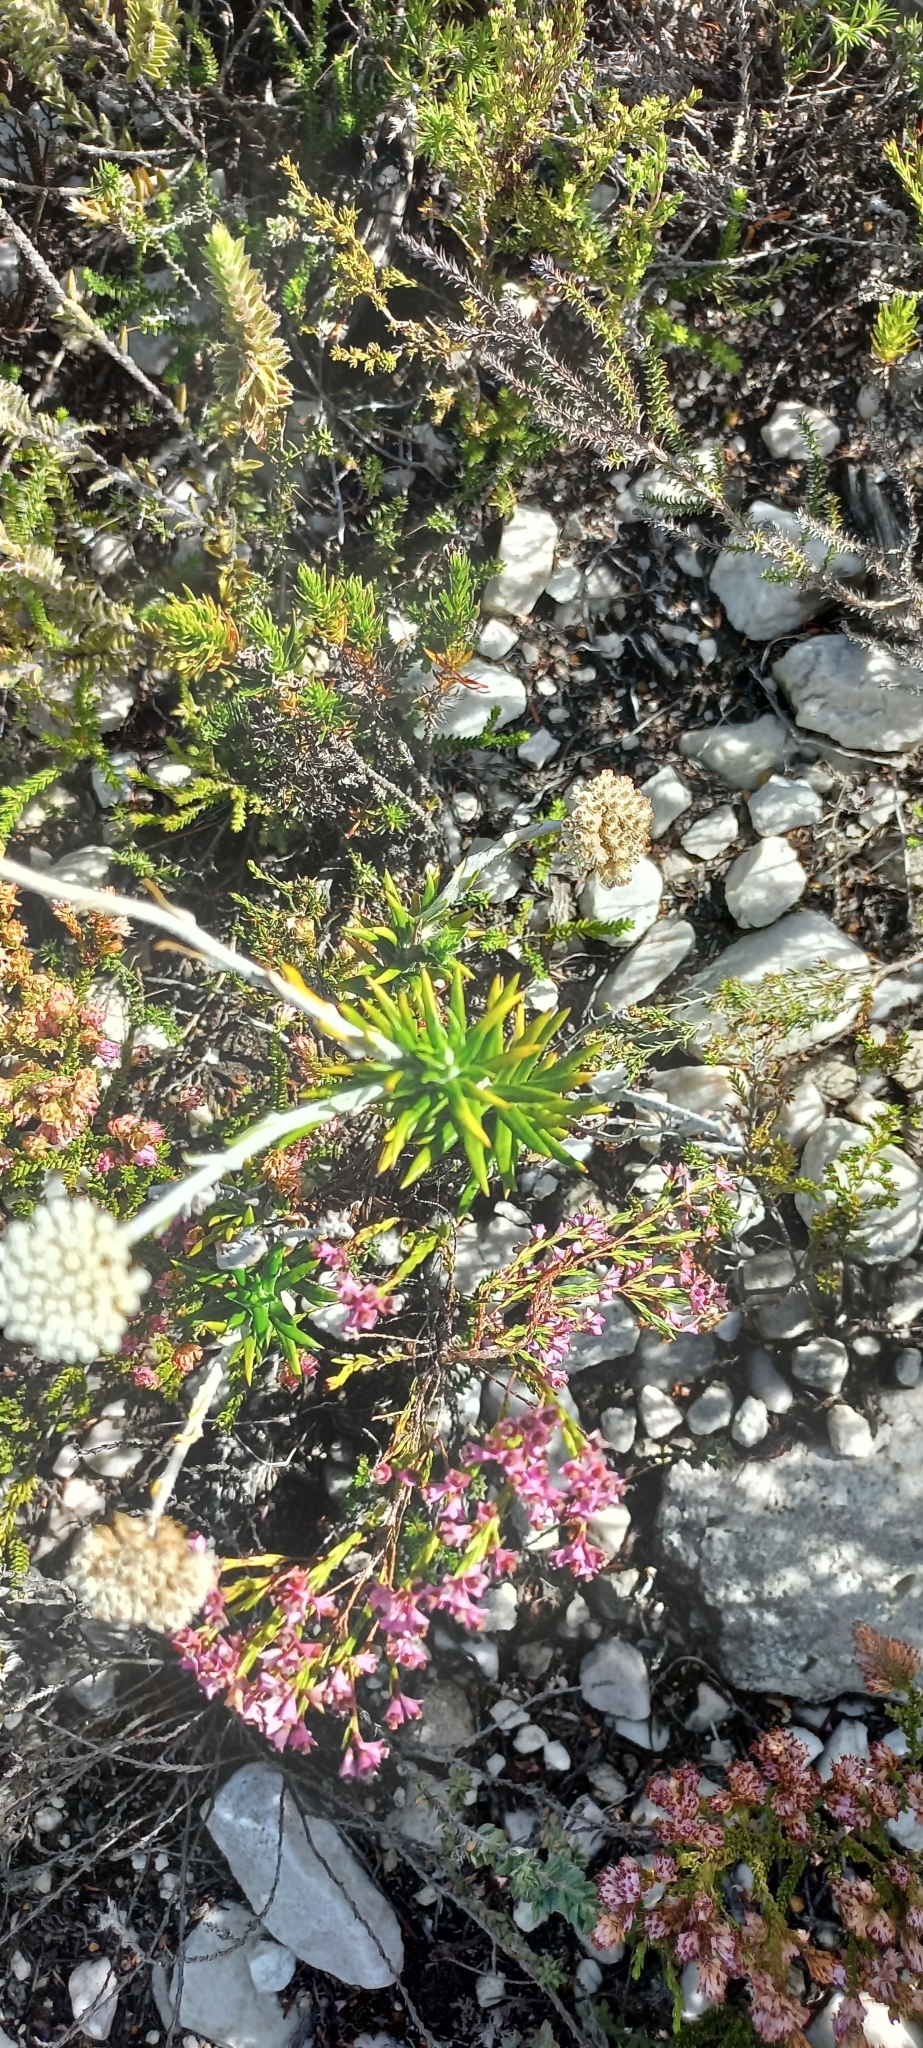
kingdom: Plantae
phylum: Tracheophyta
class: Magnoliopsida
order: Asterales
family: Asteraceae
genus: Anaxeton
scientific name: Anaxeton asperum
